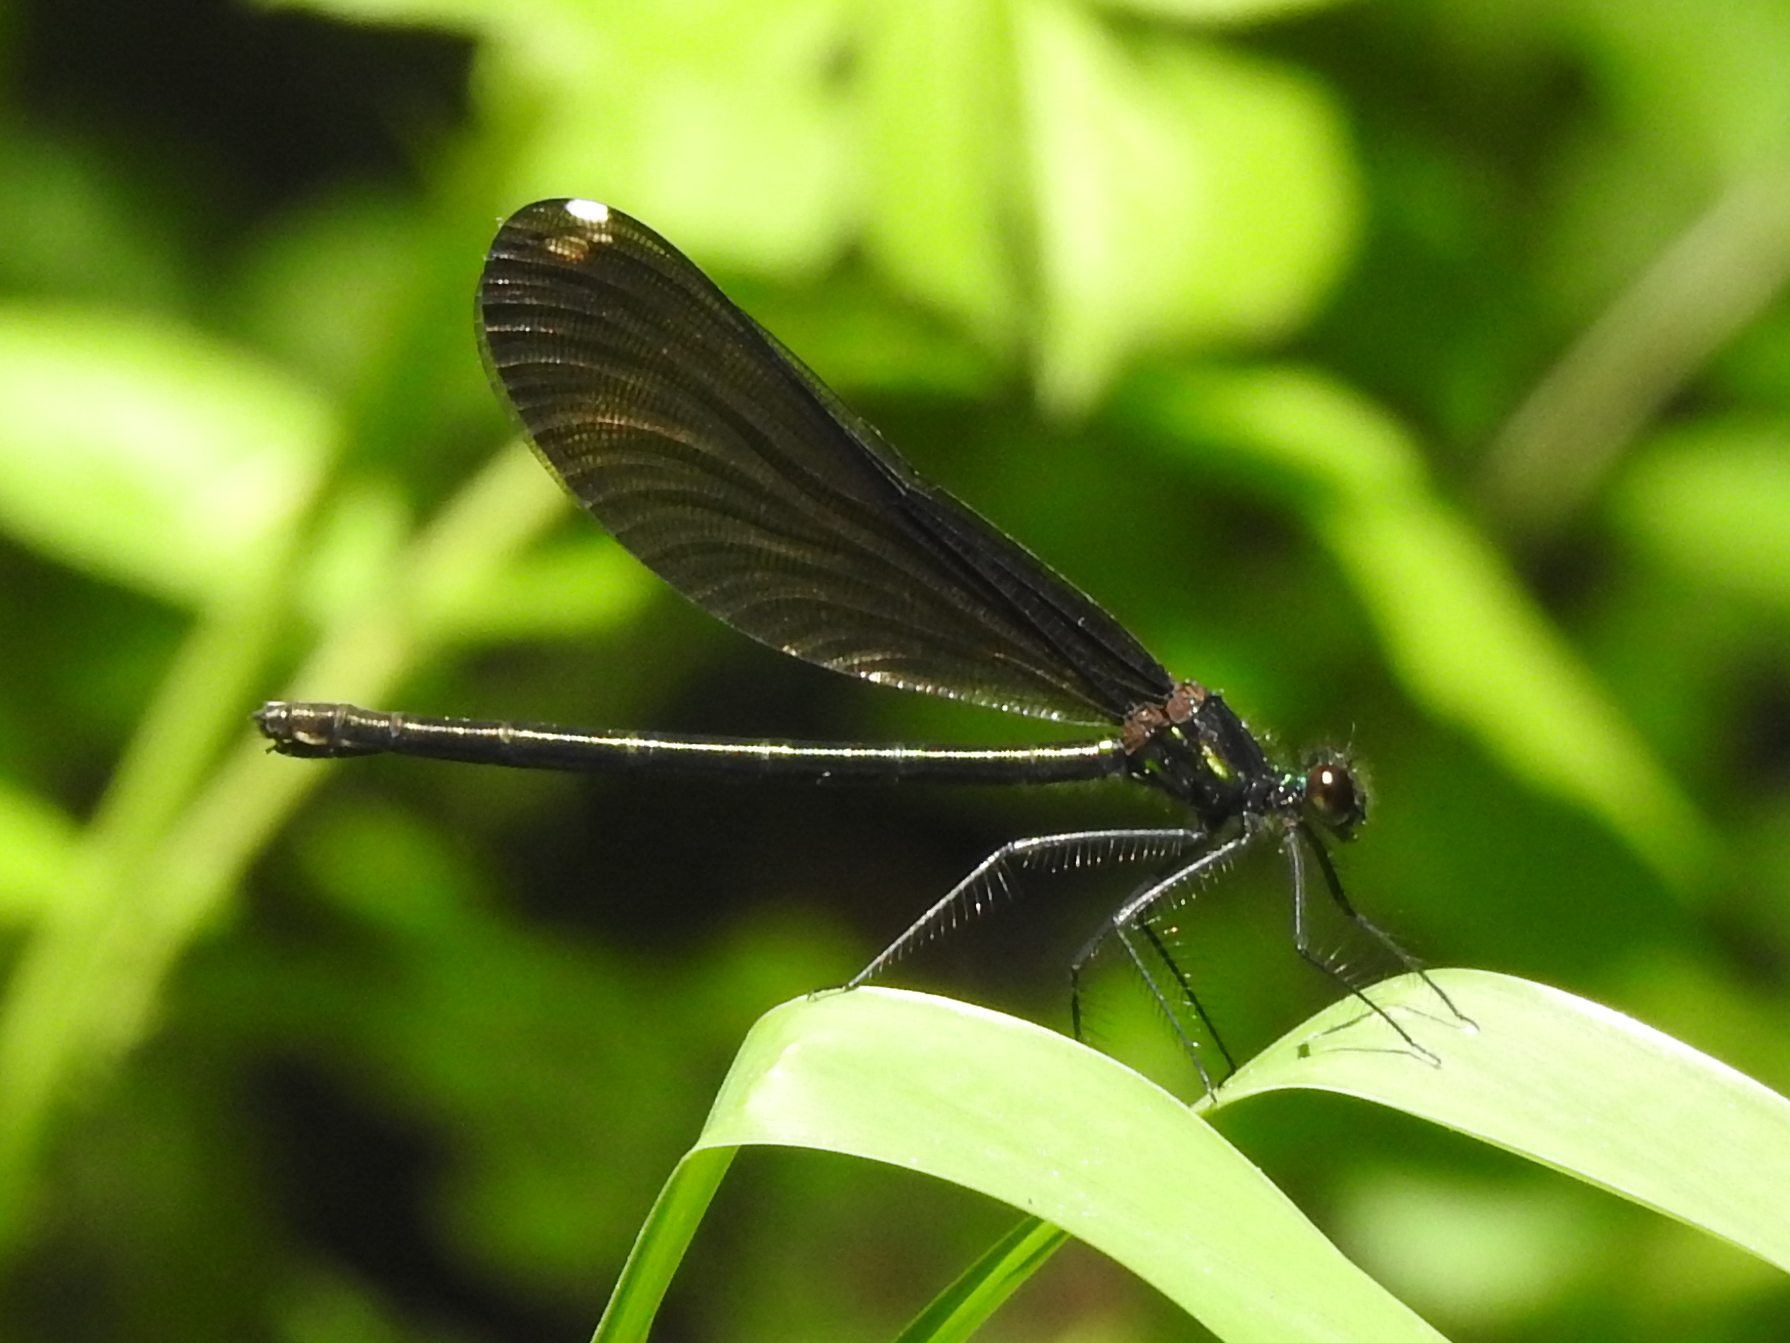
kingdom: Animalia
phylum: Arthropoda
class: Insecta
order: Odonata
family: Calopterygidae
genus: Calopteryx
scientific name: Calopteryx maculata
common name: Ebony jewelwing
